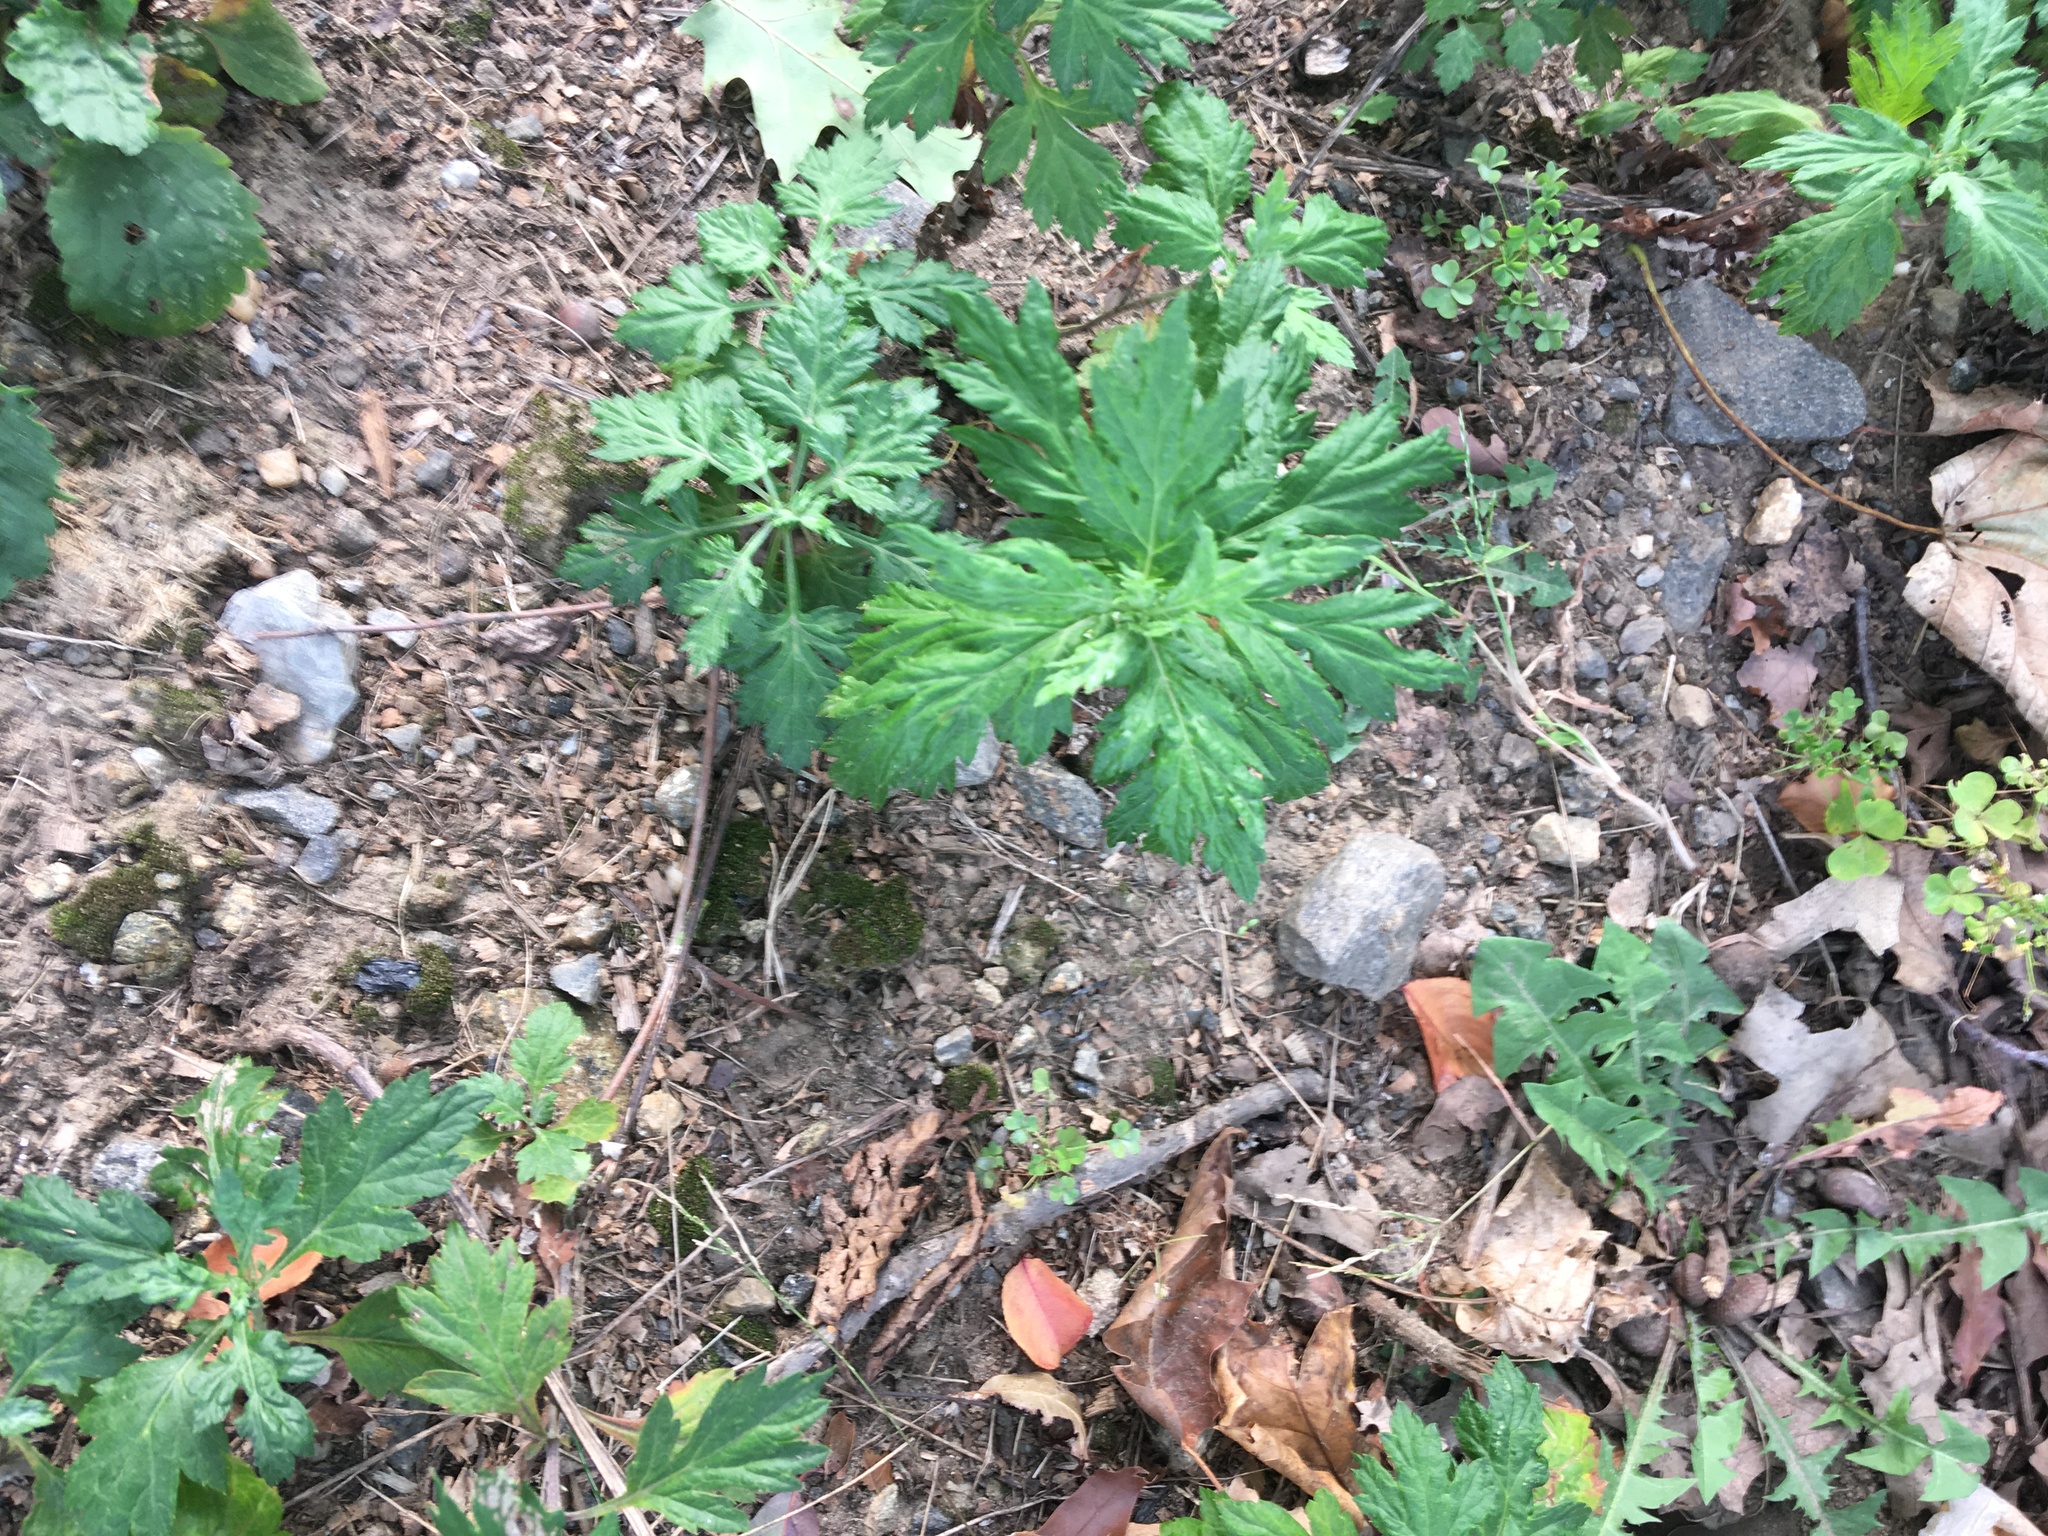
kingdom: Plantae
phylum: Tracheophyta
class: Magnoliopsida
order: Asterales
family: Asteraceae
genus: Artemisia
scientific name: Artemisia vulgaris
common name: Mugwort
